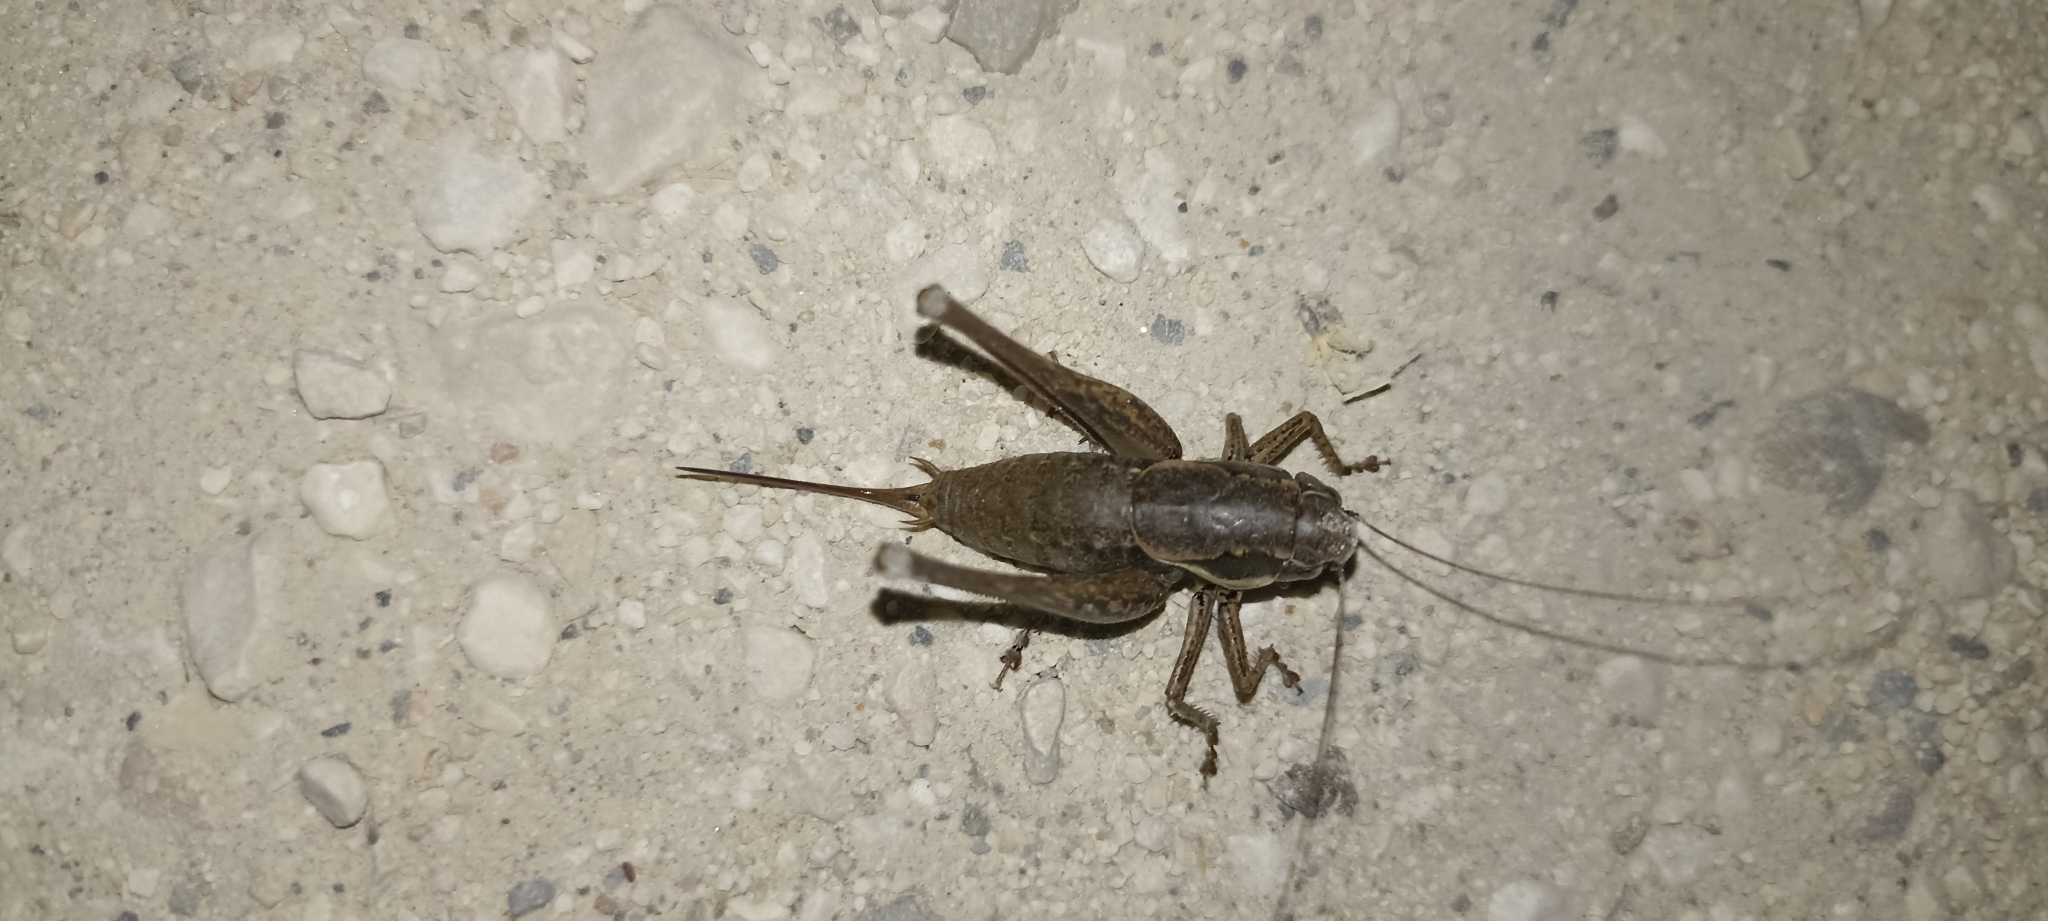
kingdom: Animalia
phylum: Arthropoda
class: Insecta
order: Orthoptera
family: Tettigoniidae
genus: Pholidoptera
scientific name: Pholidoptera femorata
